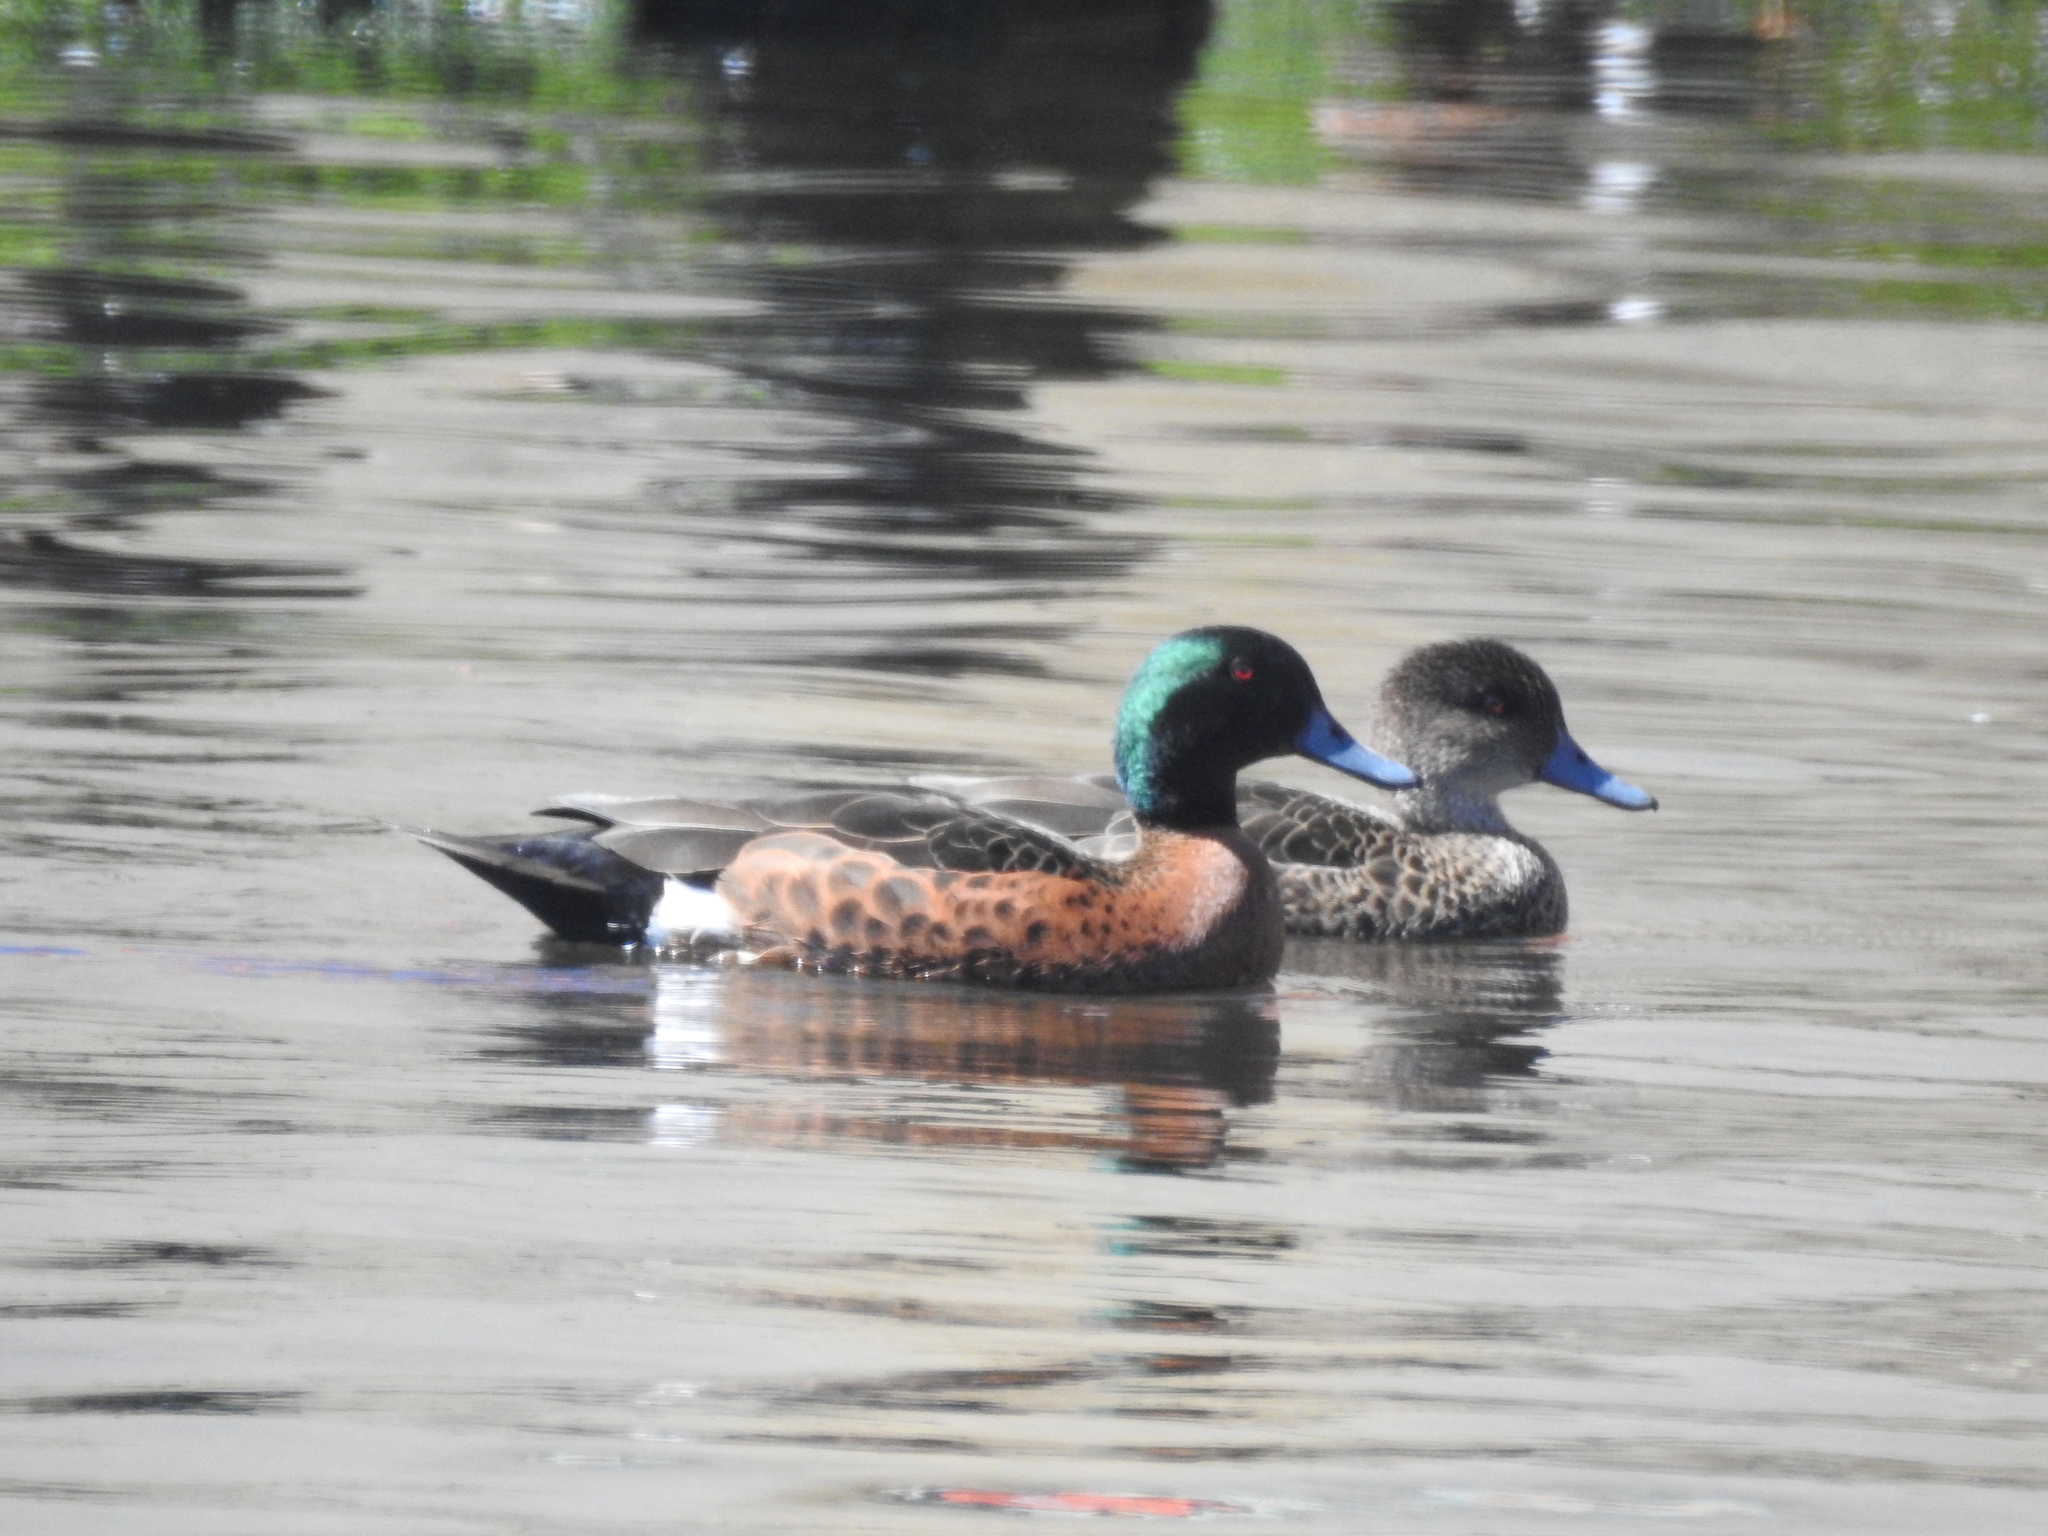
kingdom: Animalia
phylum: Chordata
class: Aves
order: Anseriformes
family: Anatidae
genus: Anas
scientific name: Anas castanea
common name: Chestnut teal
